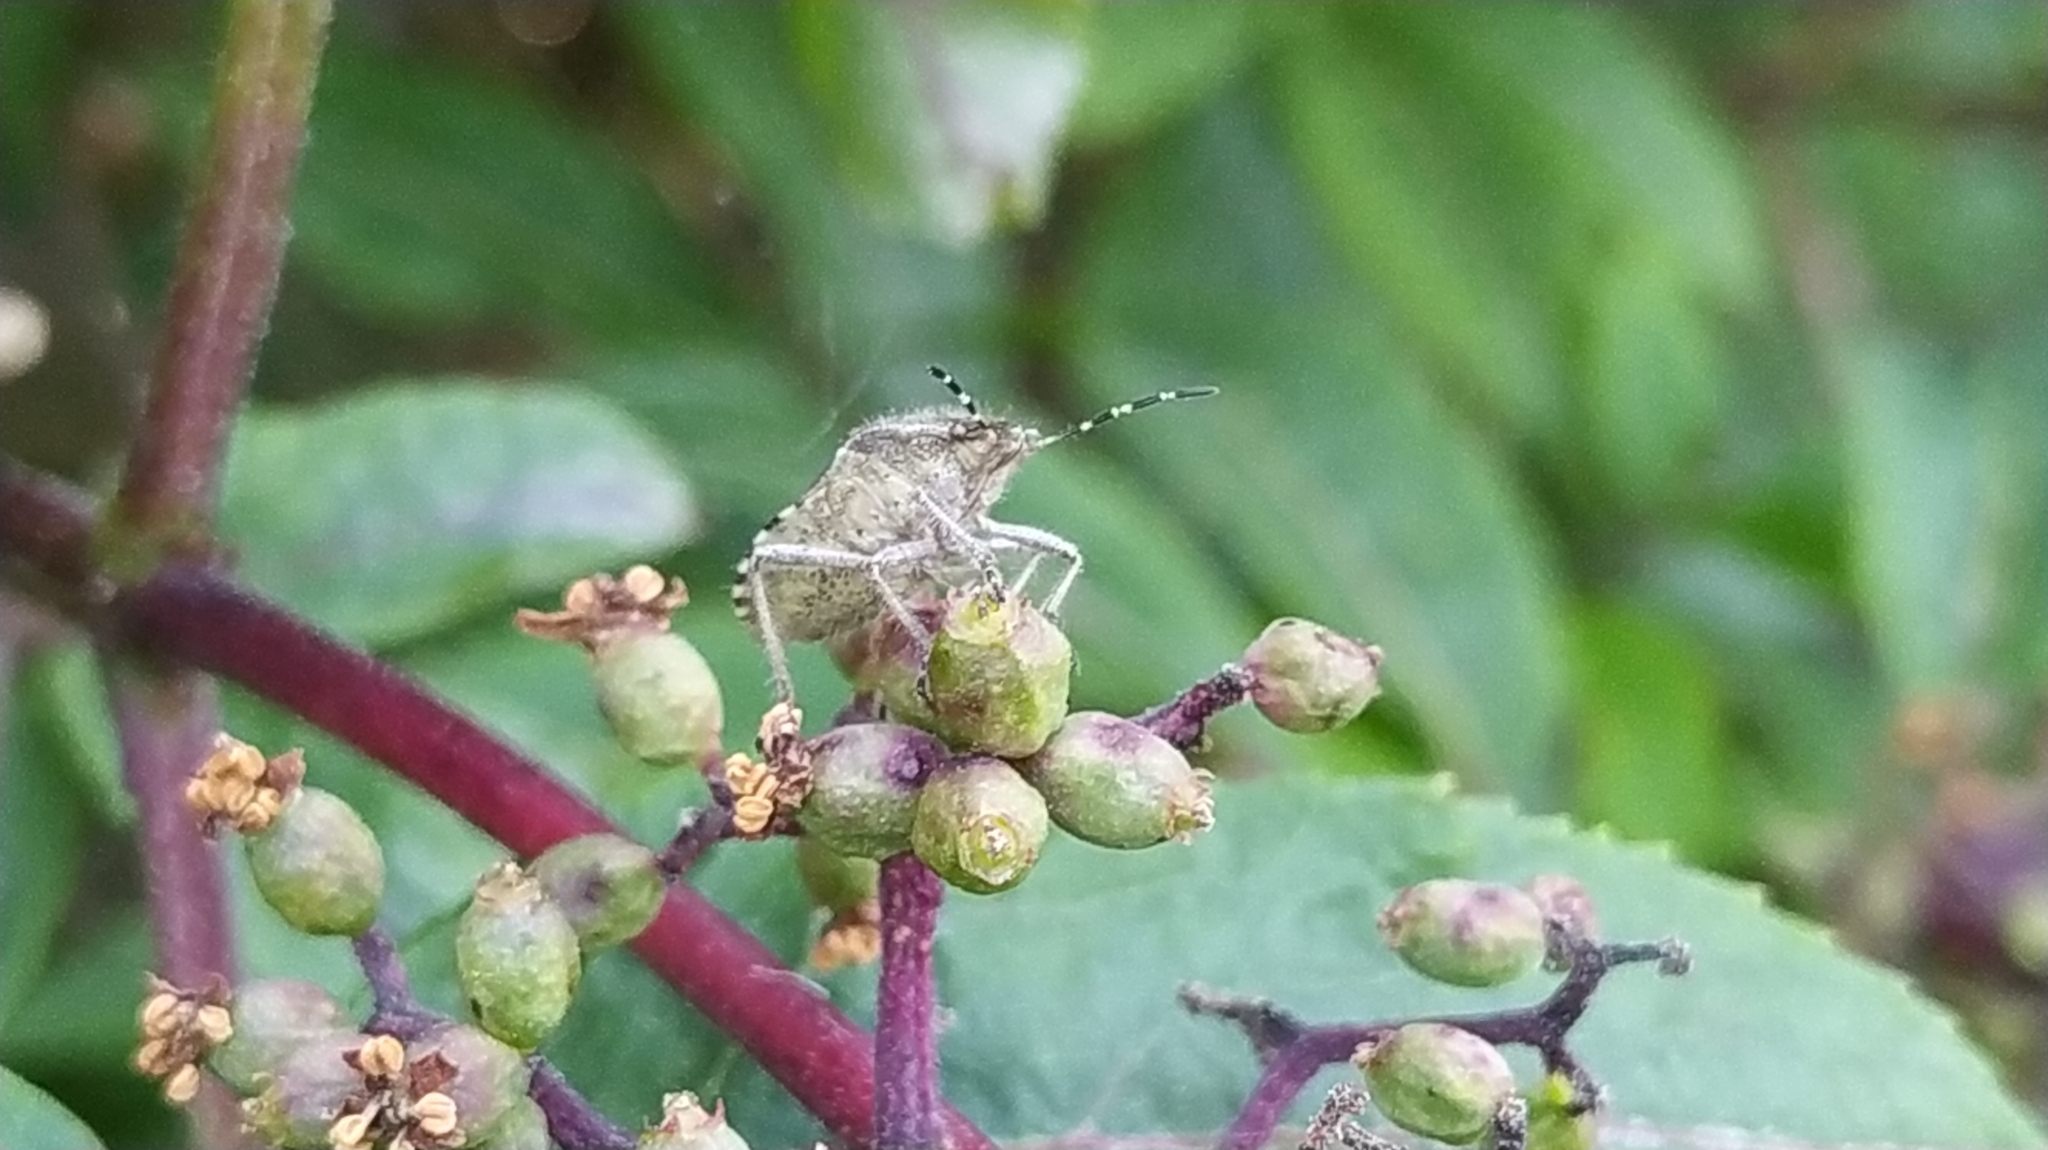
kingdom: Animalia
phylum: Arthropoda
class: Insecta
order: Hemiptera
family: Pentatomidae
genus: Dolycoris
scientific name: Dolycoris baccarum
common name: Sloe bug
